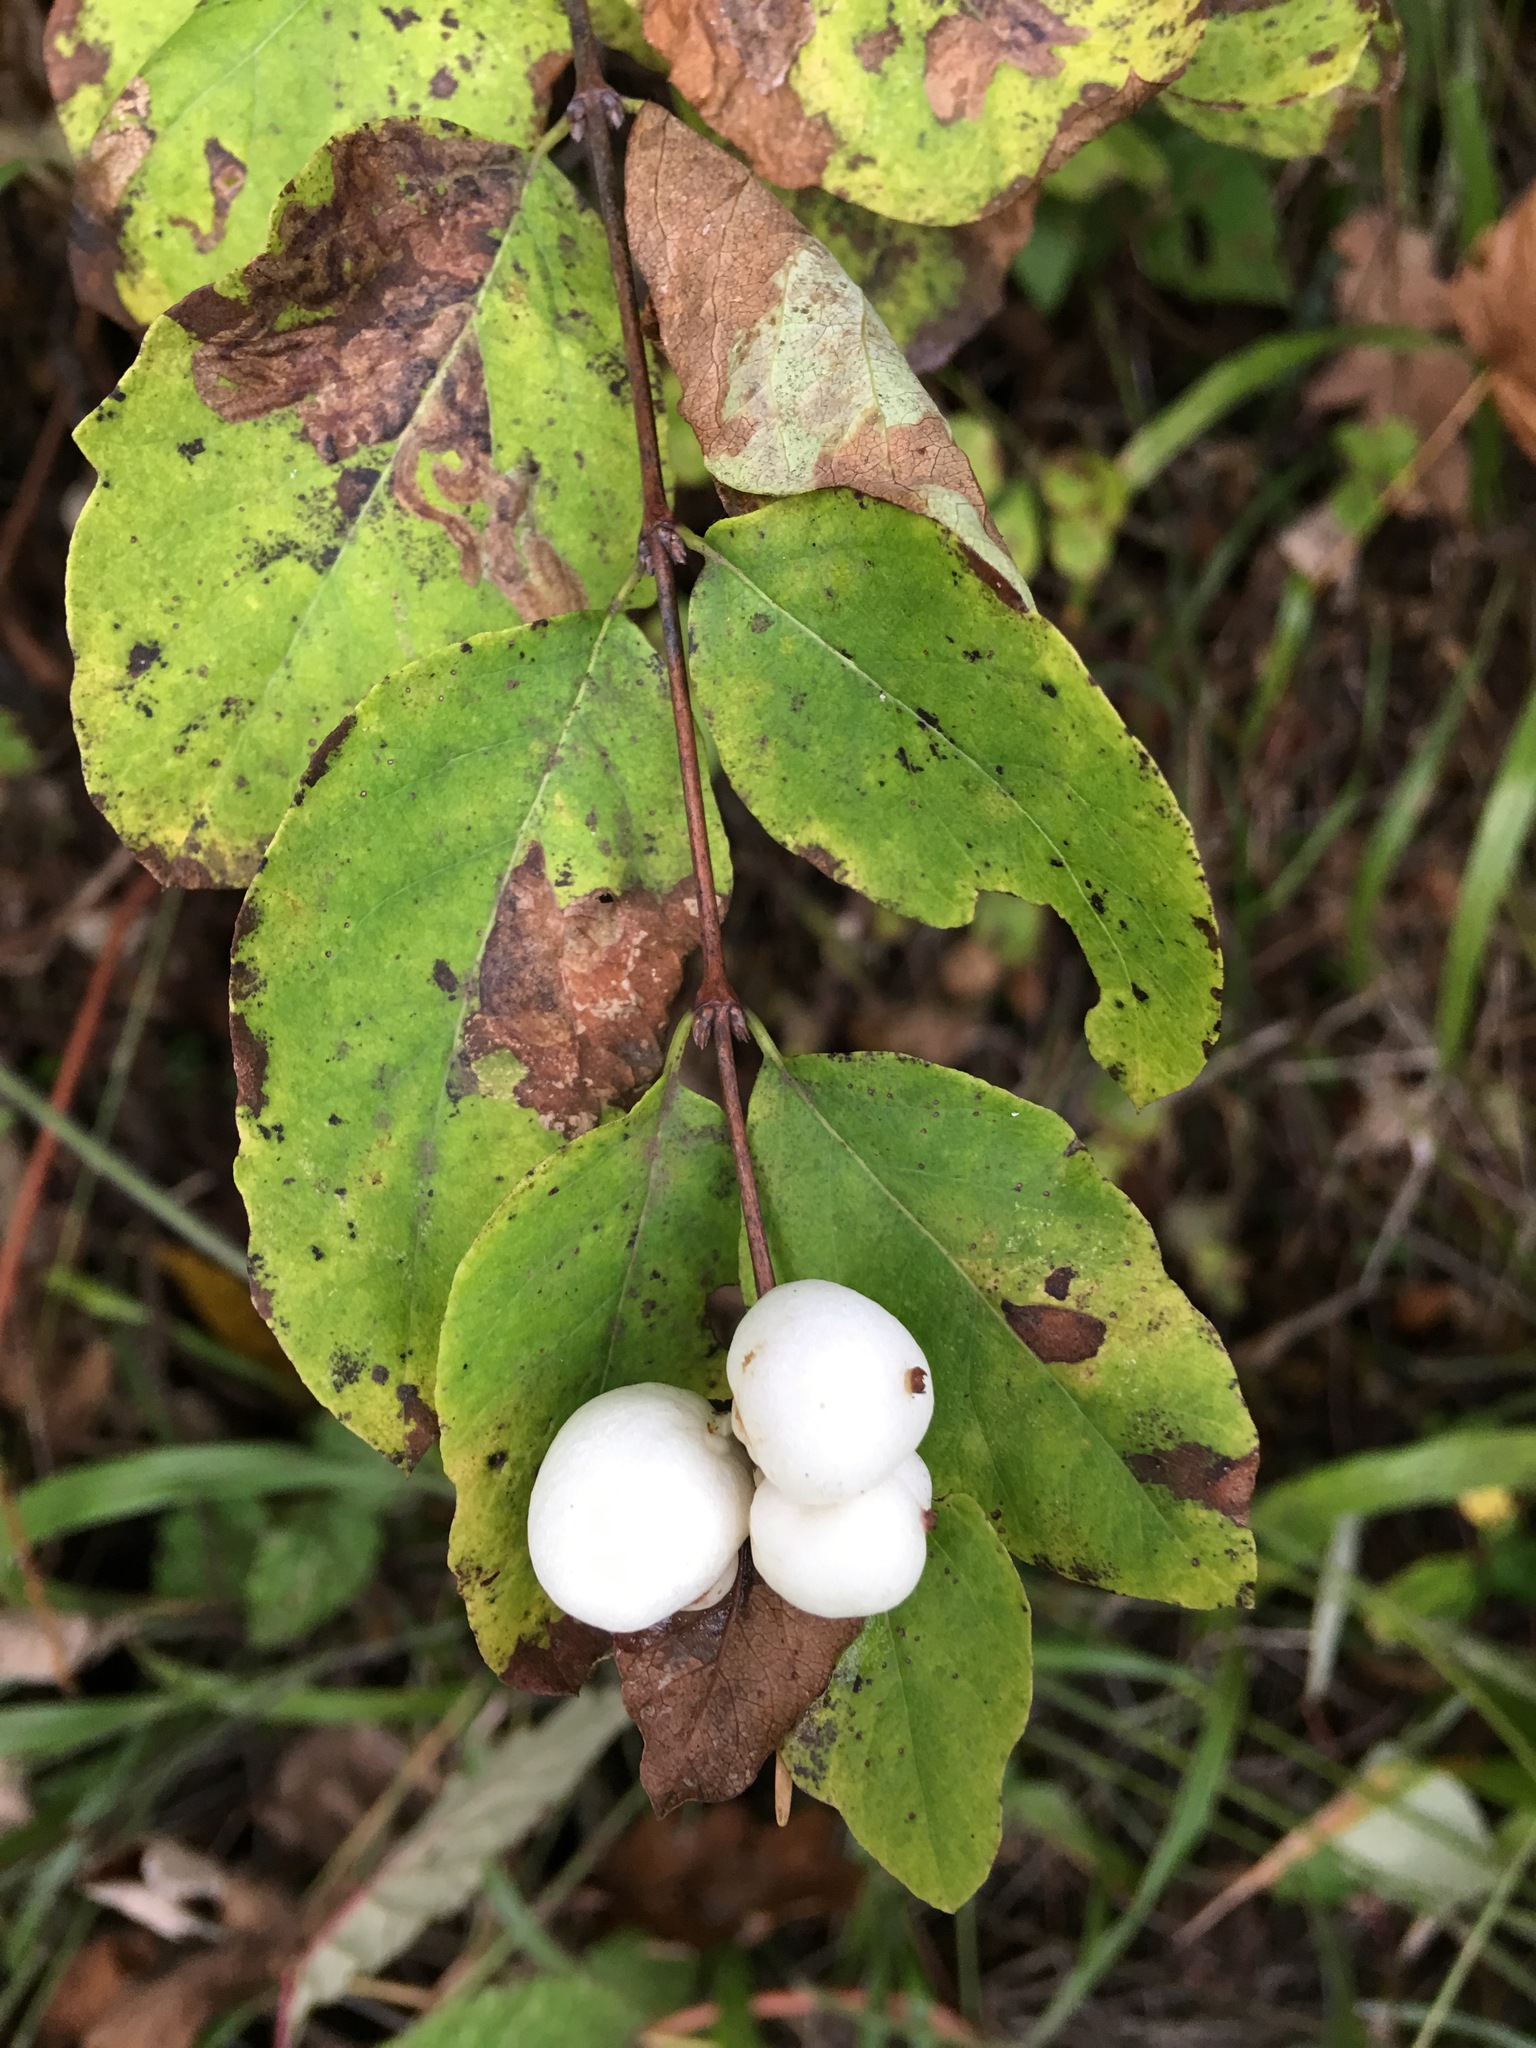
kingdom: Plantae
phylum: Tracheophyta
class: Magnoliopsida
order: Dipsacales
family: Caprifoliaceae
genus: Symphoricarpos
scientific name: Symphoricarpos albus
